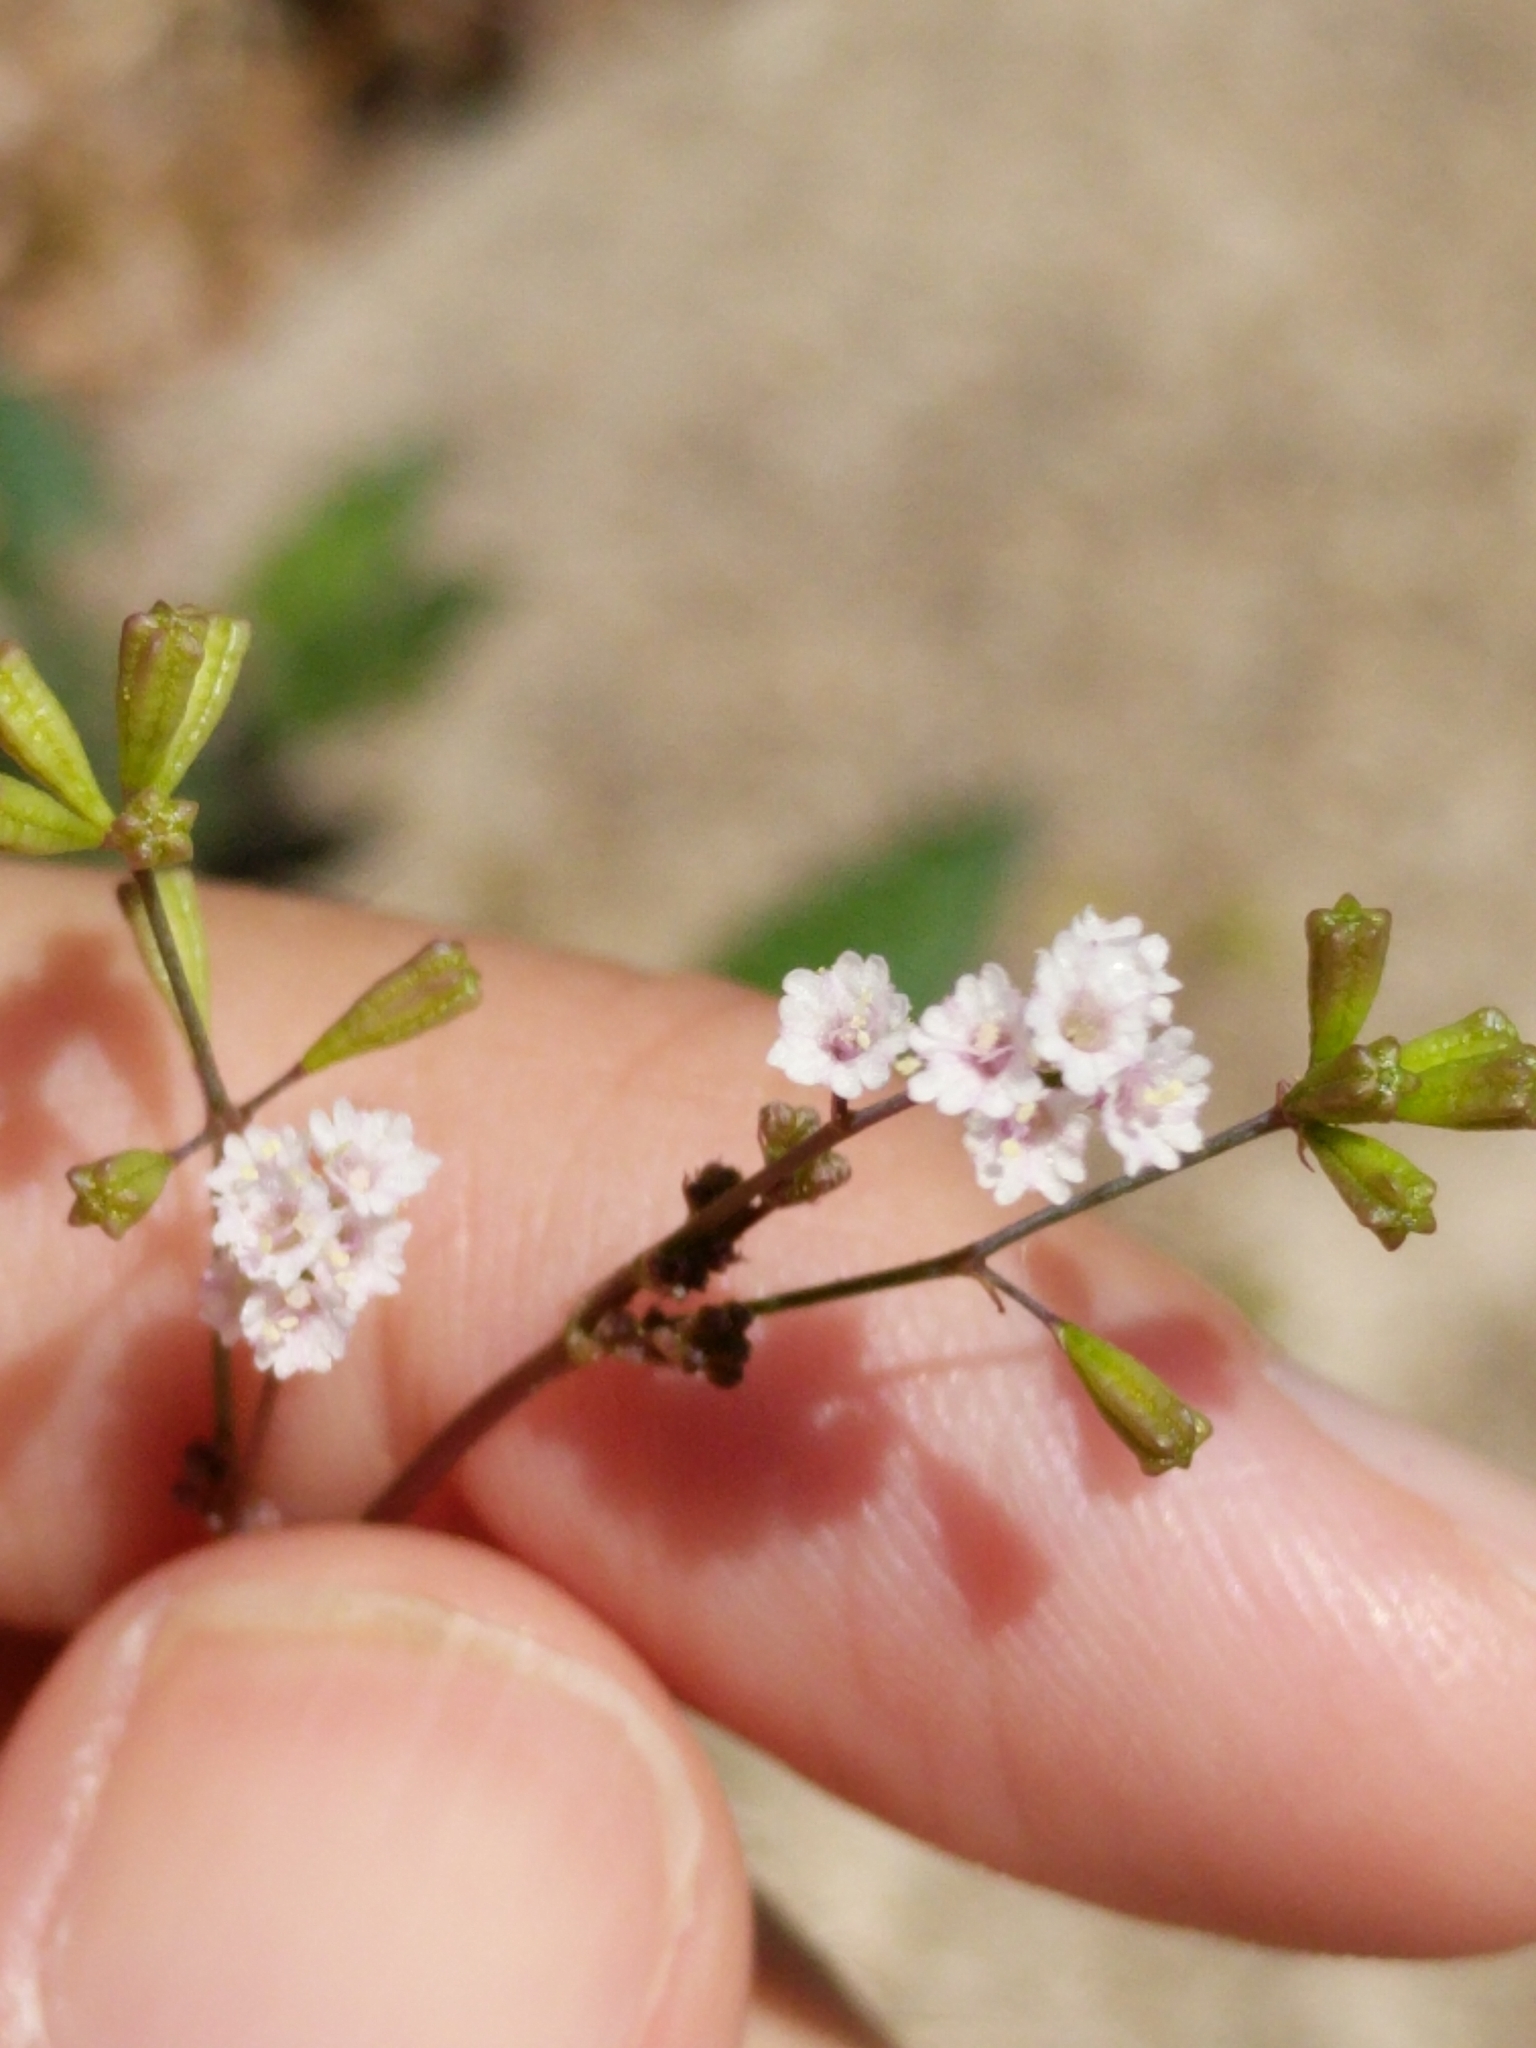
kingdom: Plantae
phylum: Tracheophyta
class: Magnoliopsida
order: Caryophyllales
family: Nyctaginaceae
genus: Boerhavia
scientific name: Boerhavia erecta
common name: Erect spiderling
